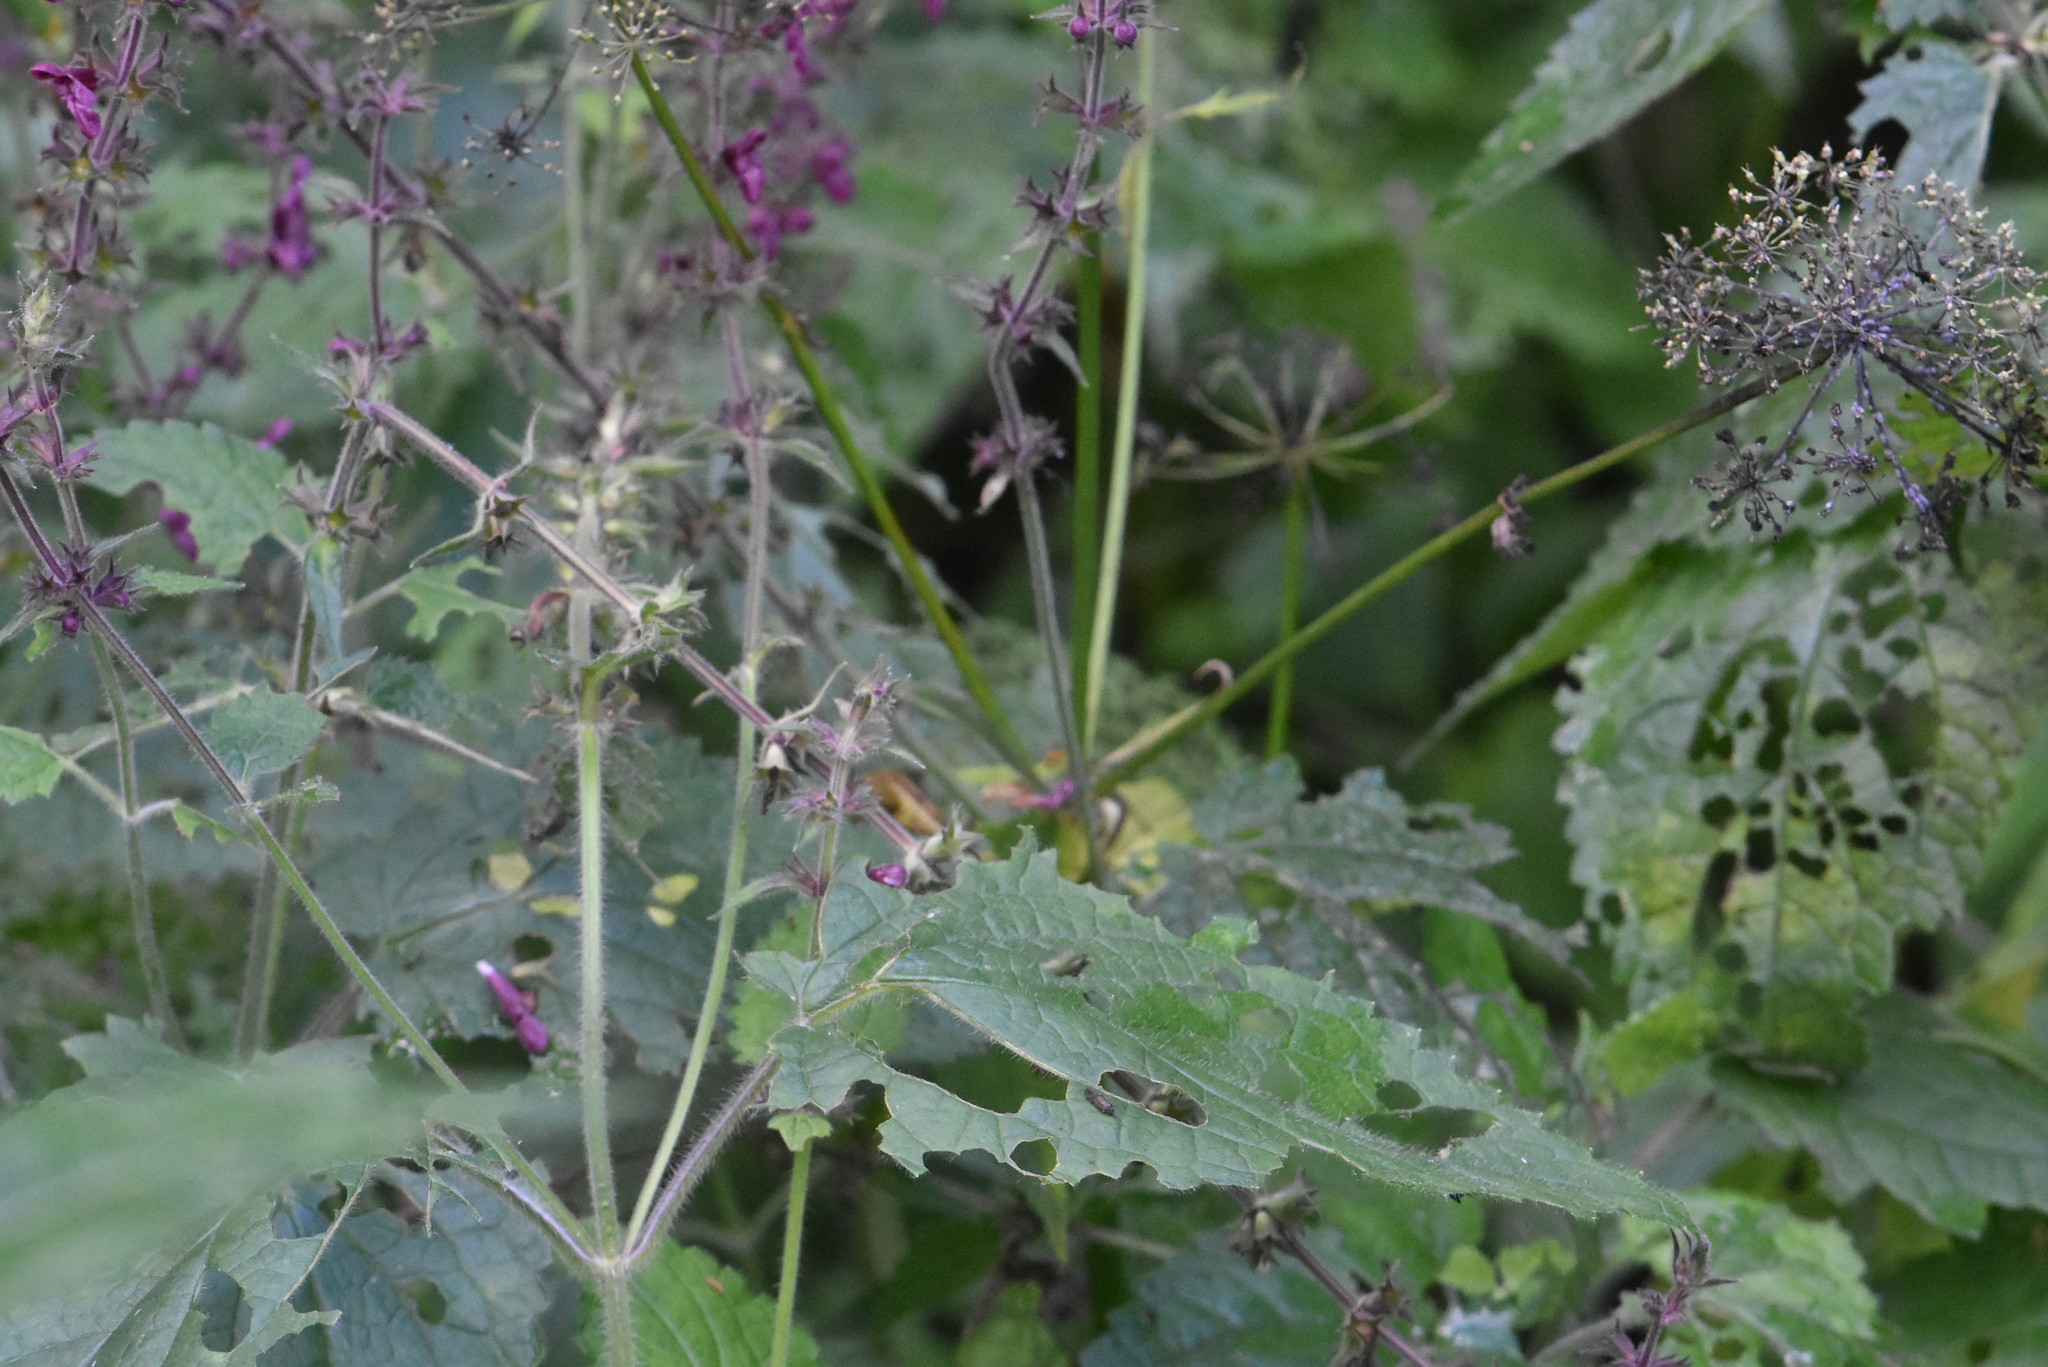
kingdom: Plantae
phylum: Tracheophyta
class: Magnoliopsida
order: Lamiales
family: Lamiaceae
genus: Stachys
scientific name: Stachys sylvatica
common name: Hedge woundwort
